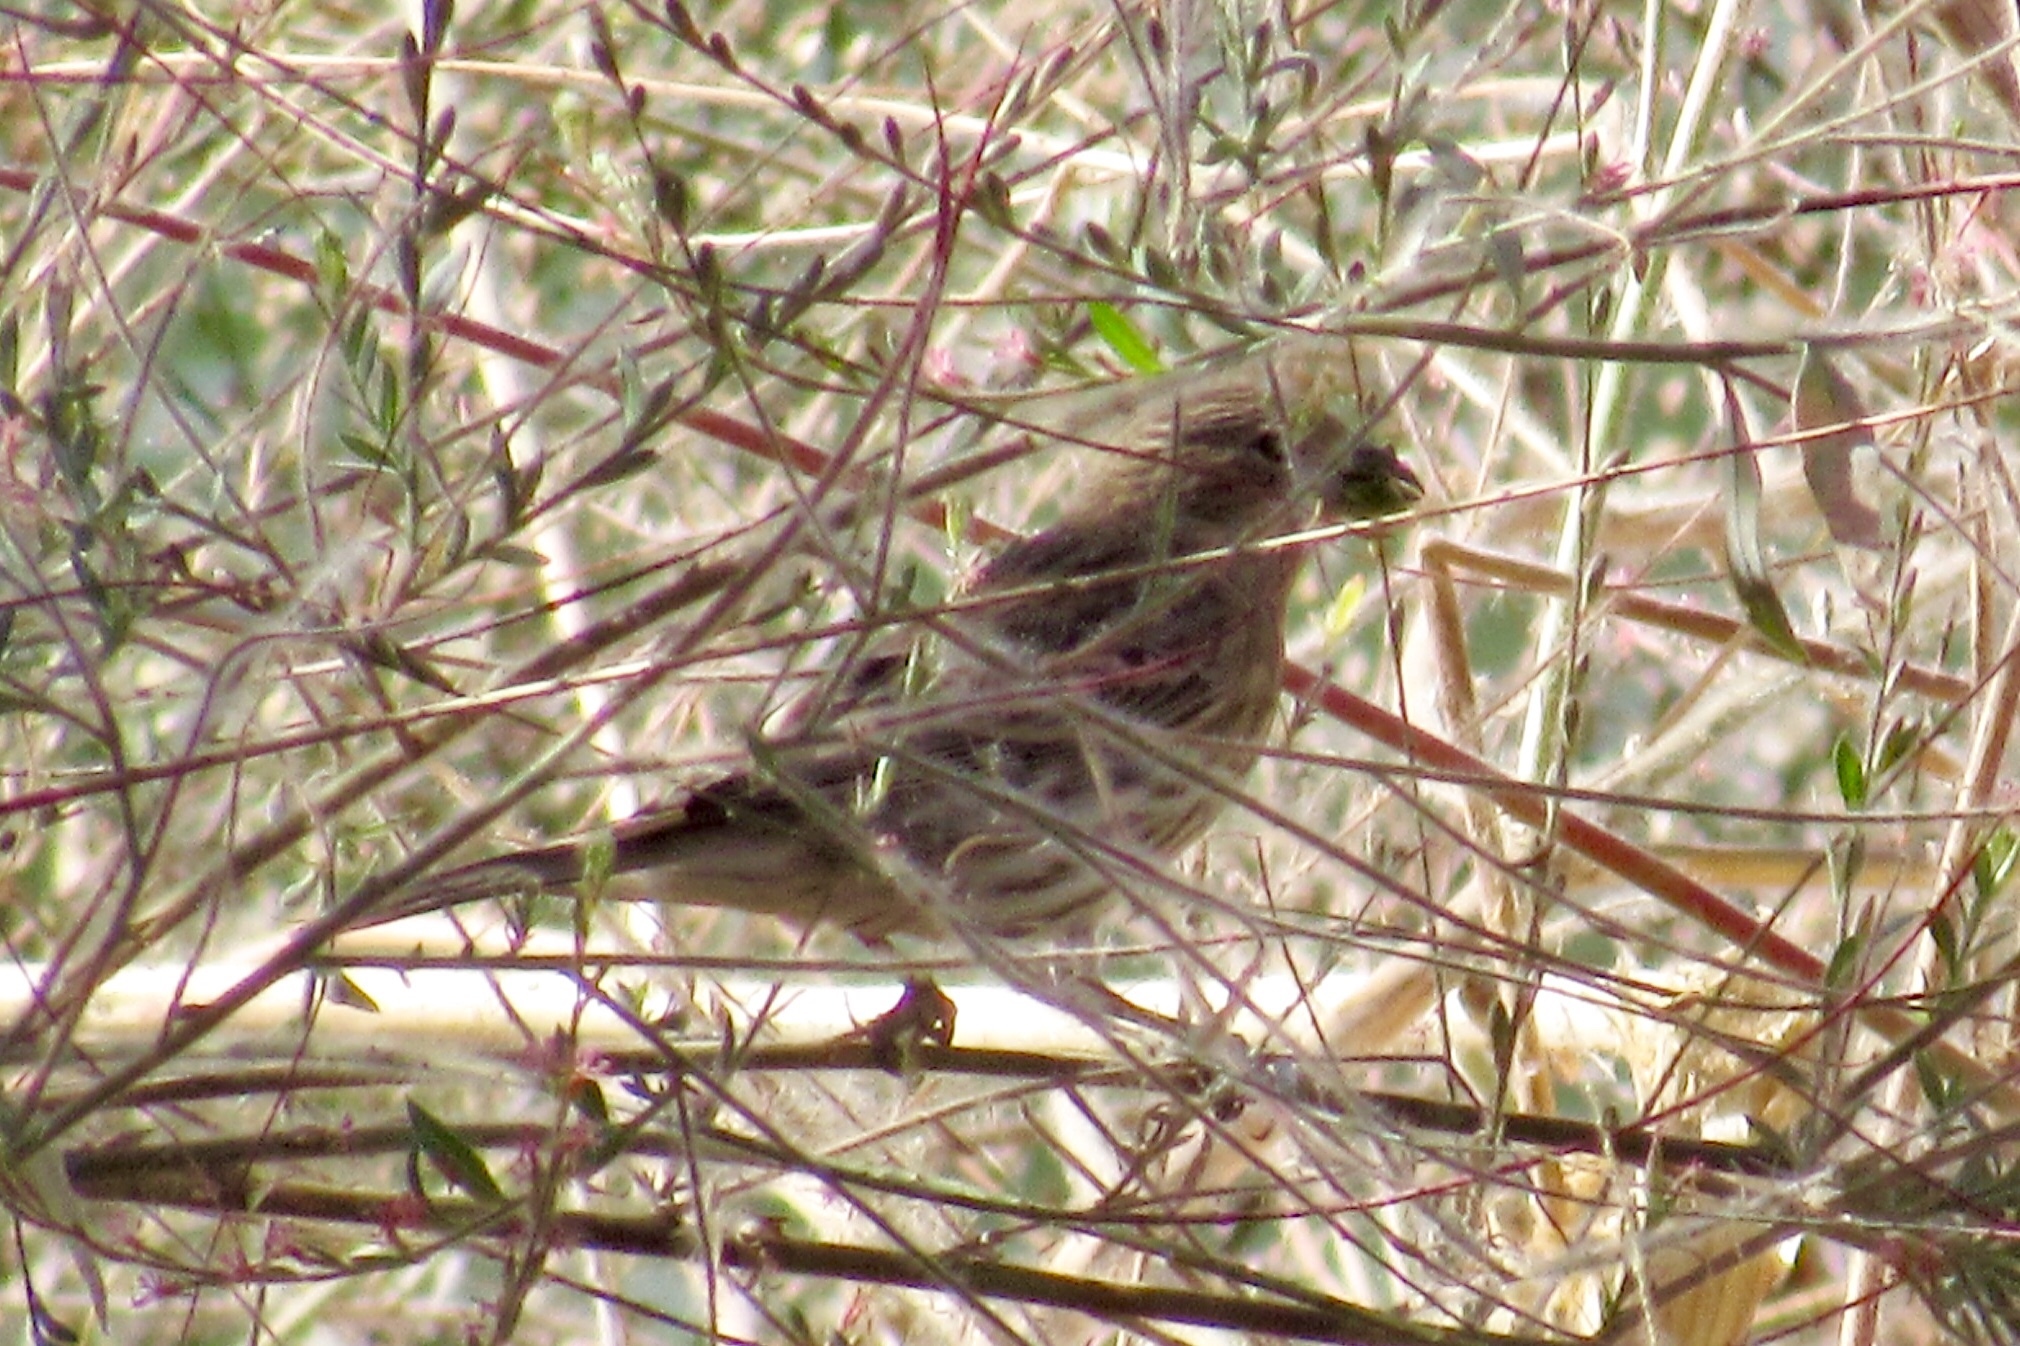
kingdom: Animalia
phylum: Chordata
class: Aves
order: Passeriformes
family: Fringillidae
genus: Haemorhous
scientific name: Haemorhous mexicanus
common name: House finch
